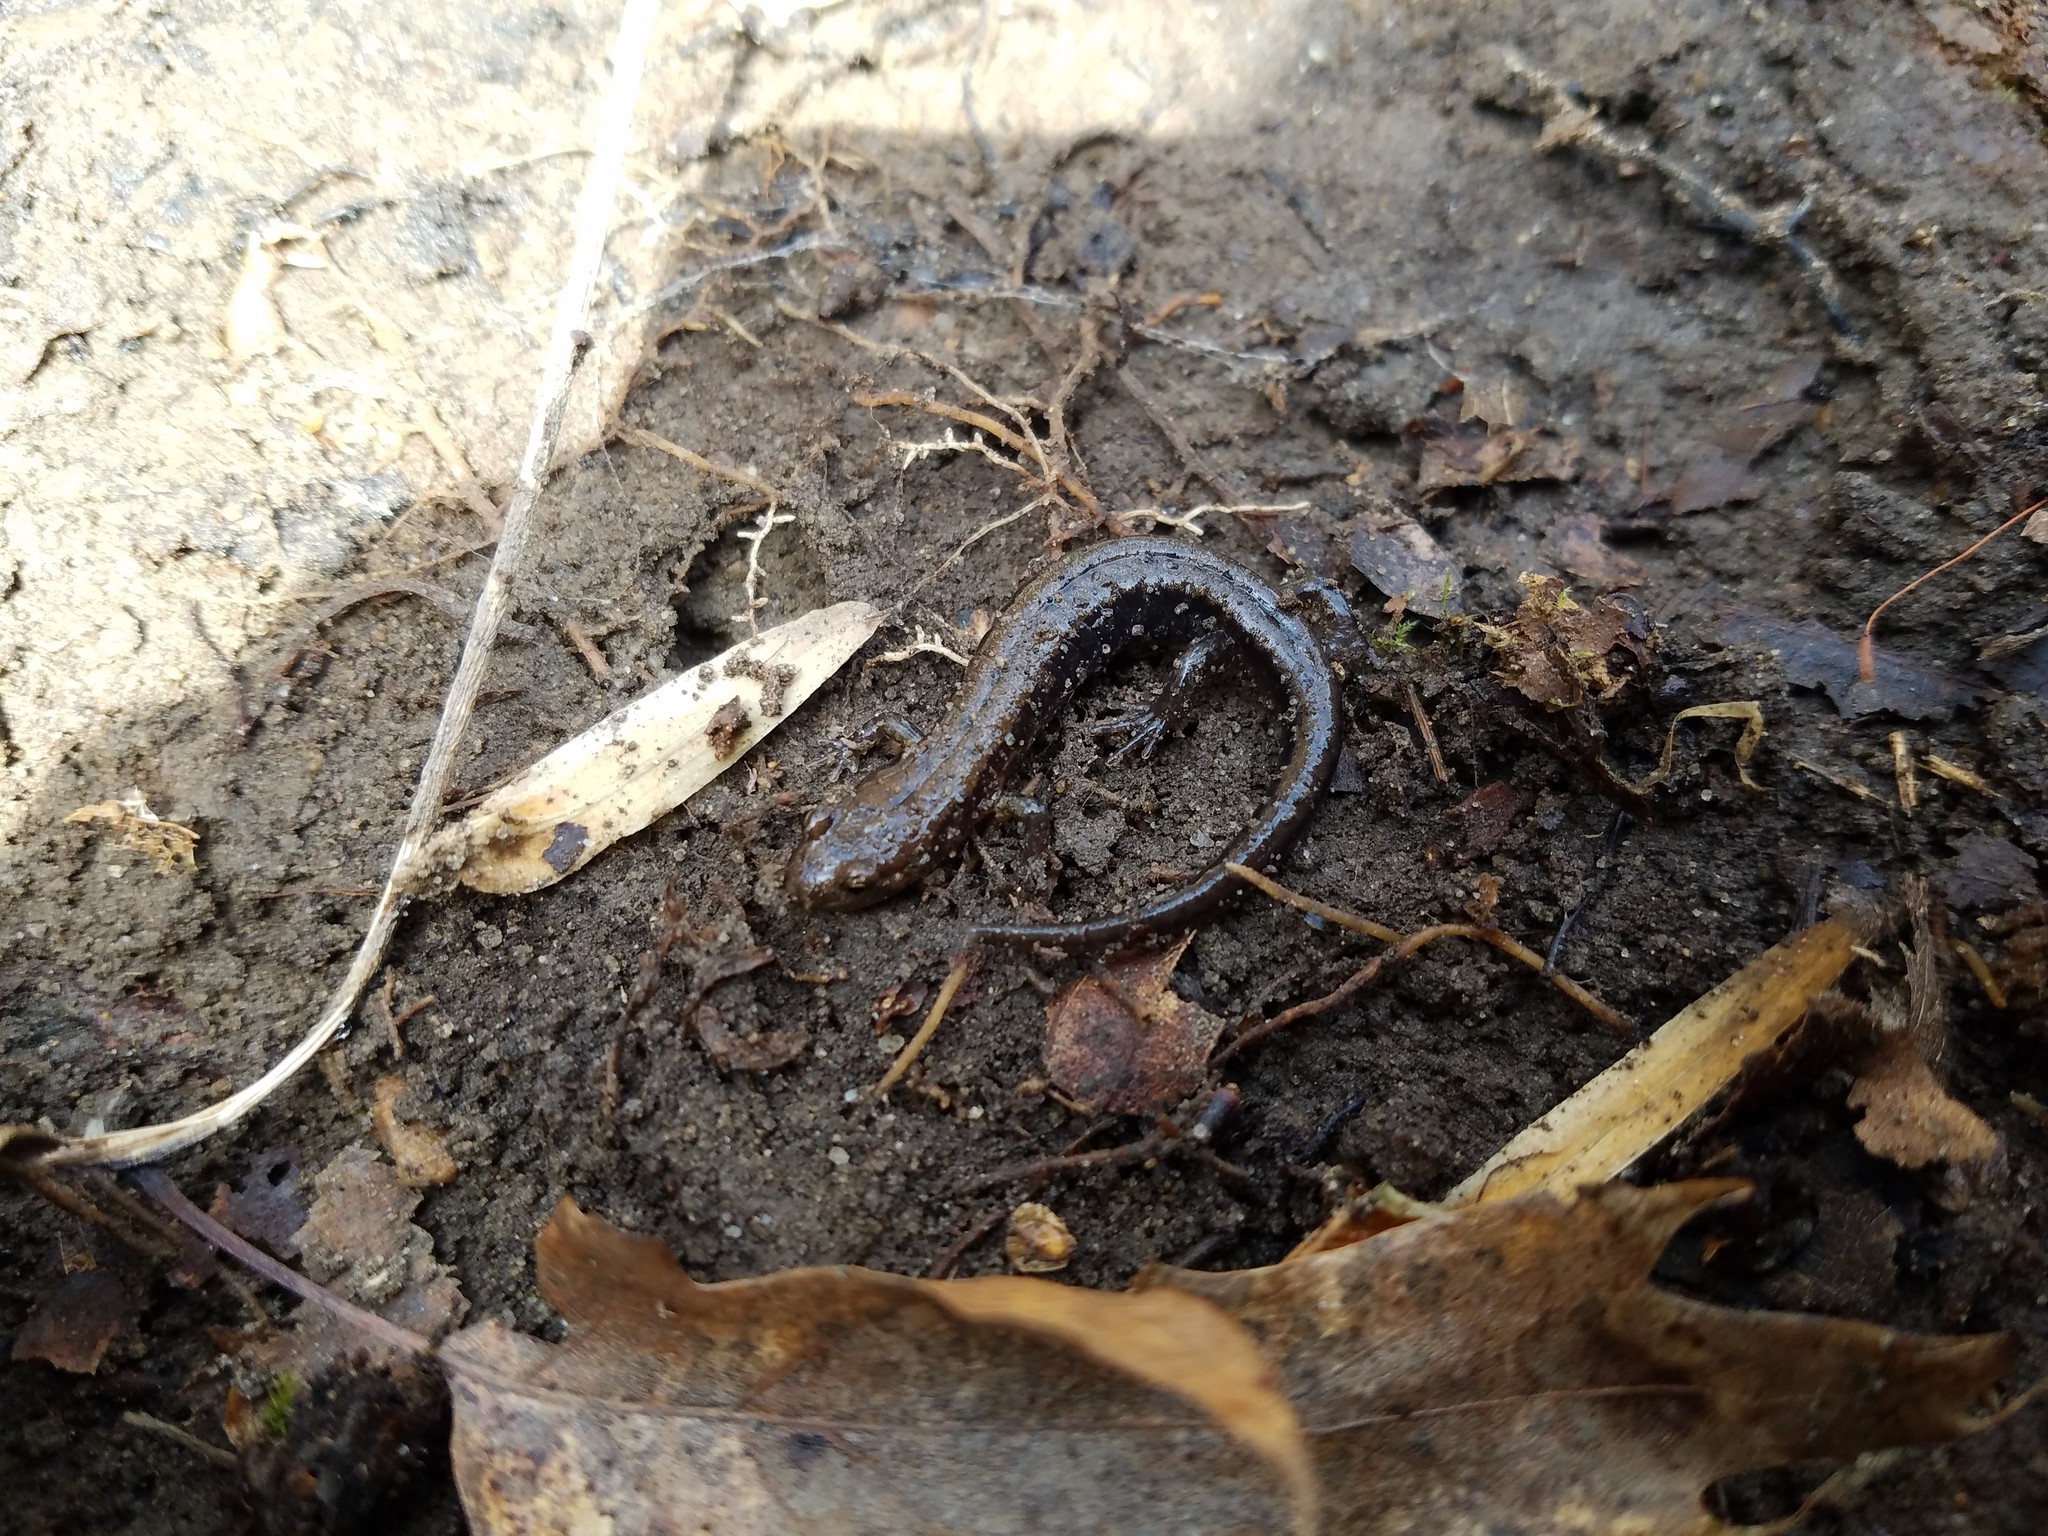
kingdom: Animalia
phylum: Chordata
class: Amphibia
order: Caudata
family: Plethodontidae
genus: Desmognathus
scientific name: Desmognathus ochrophaeus
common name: Allegheny mountain dusky salamander
